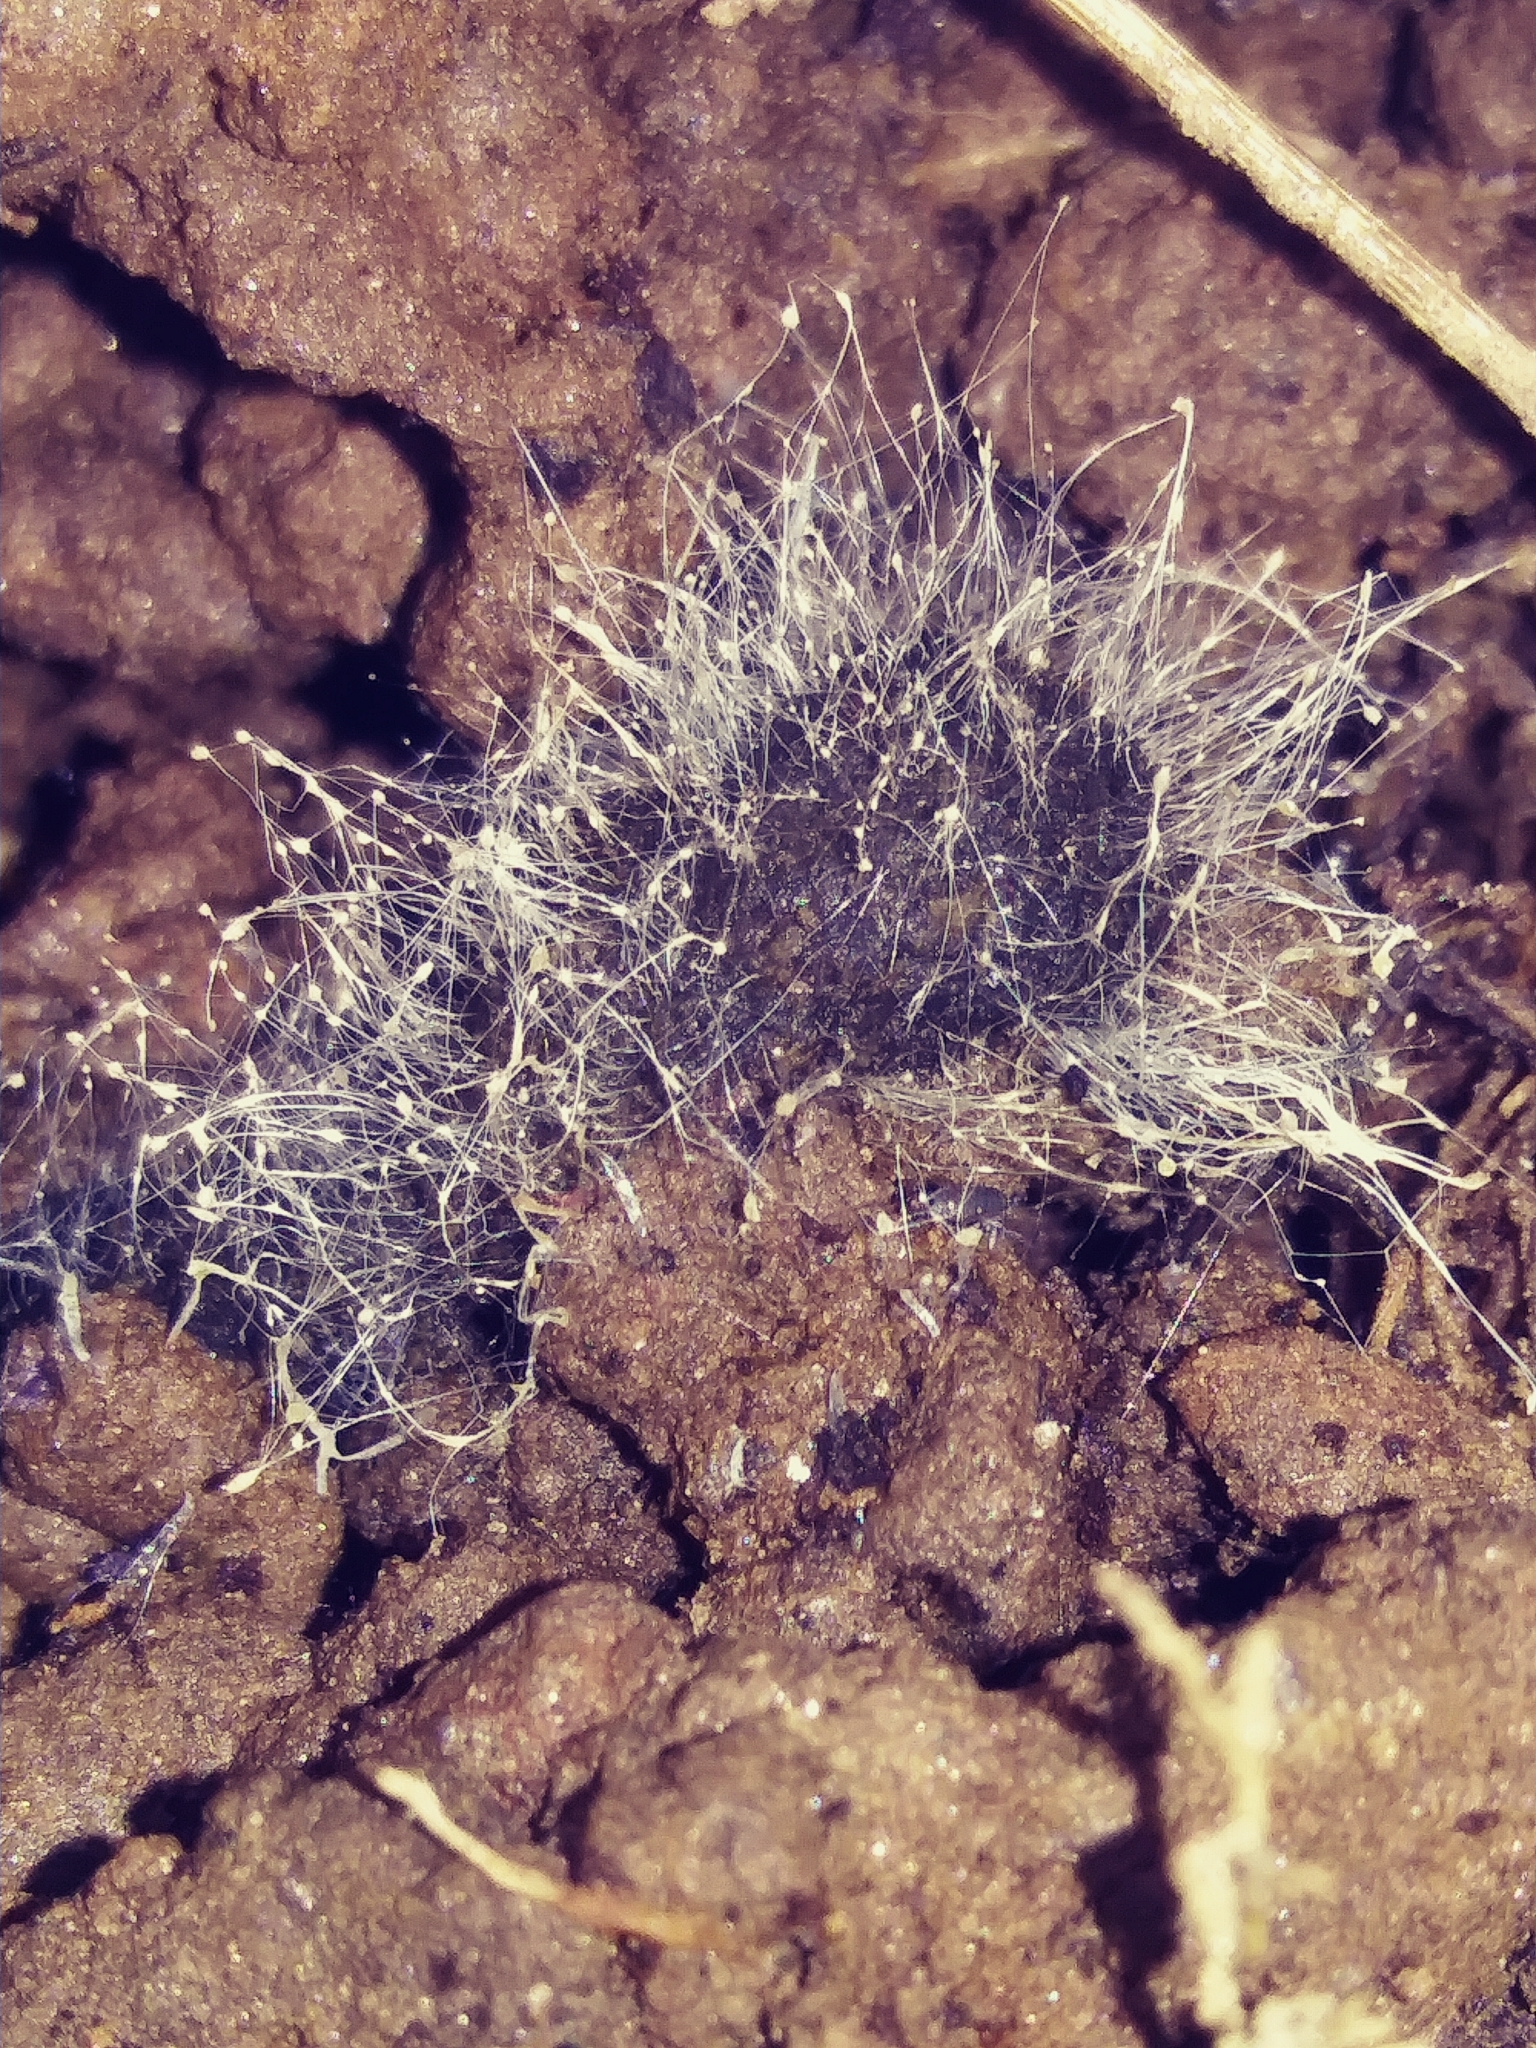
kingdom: Fungi
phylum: Mucoromycota
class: Mucoromycetes
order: Mucorales
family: Phycomycetaceae
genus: Phycomyces
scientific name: Phycomyces
